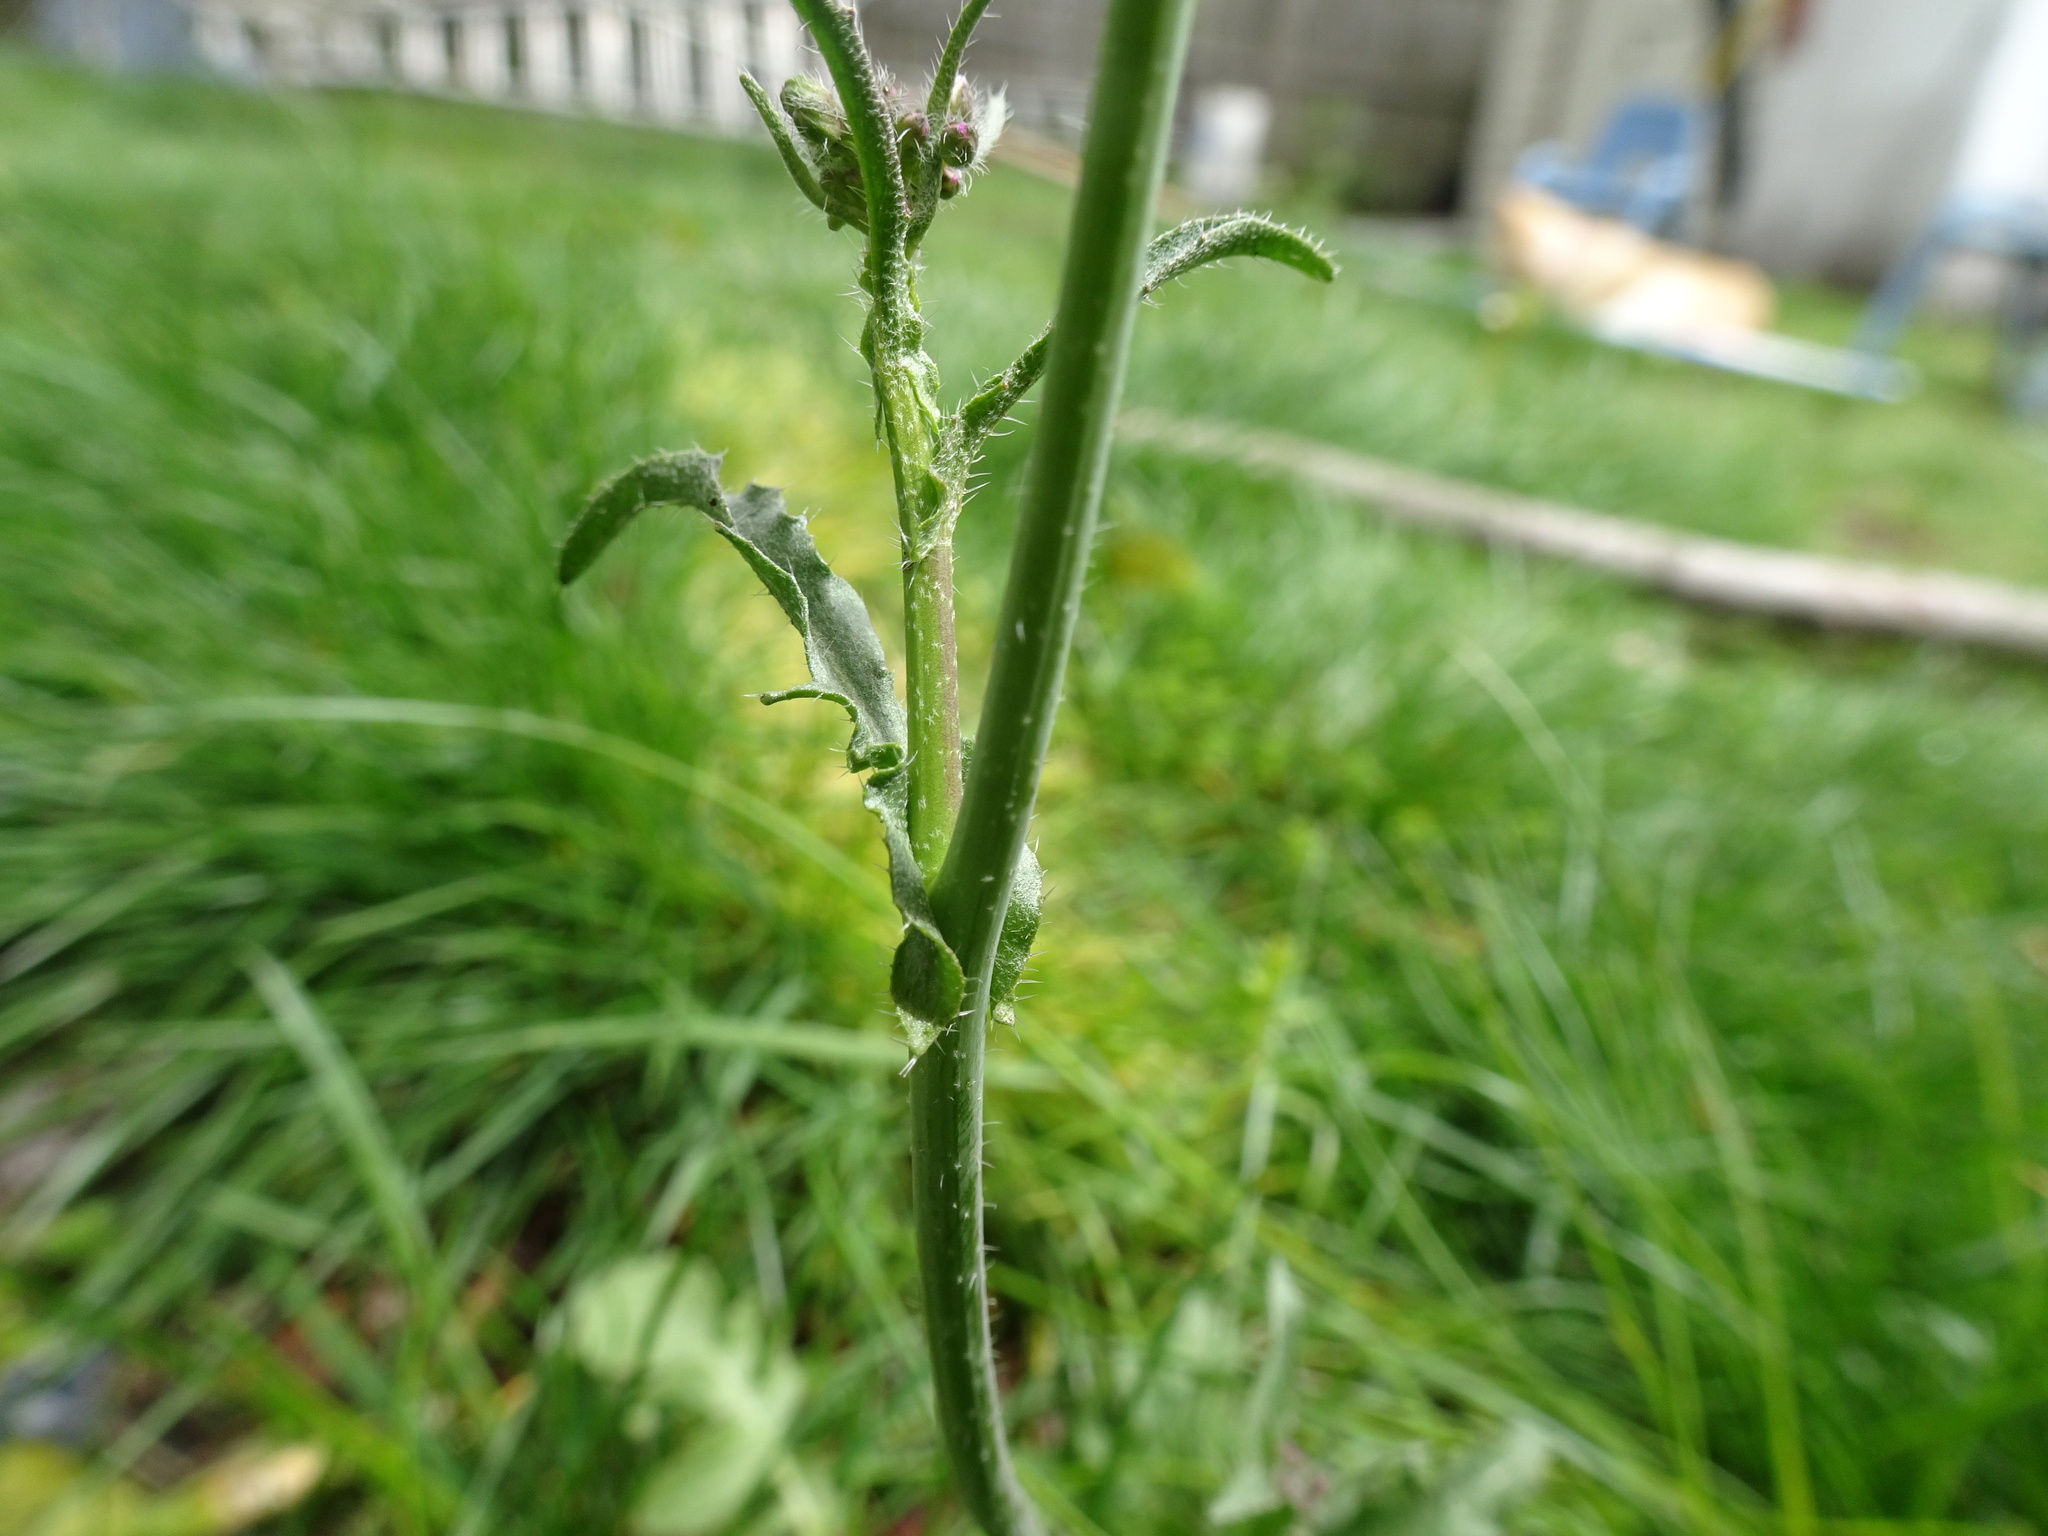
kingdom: Plantae
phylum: Tracheophyta
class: Magnoliopsida
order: Brassicales
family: Brassicaceae
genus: Capsella
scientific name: Capsella bursa-pastoris
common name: Shepherd's purse
